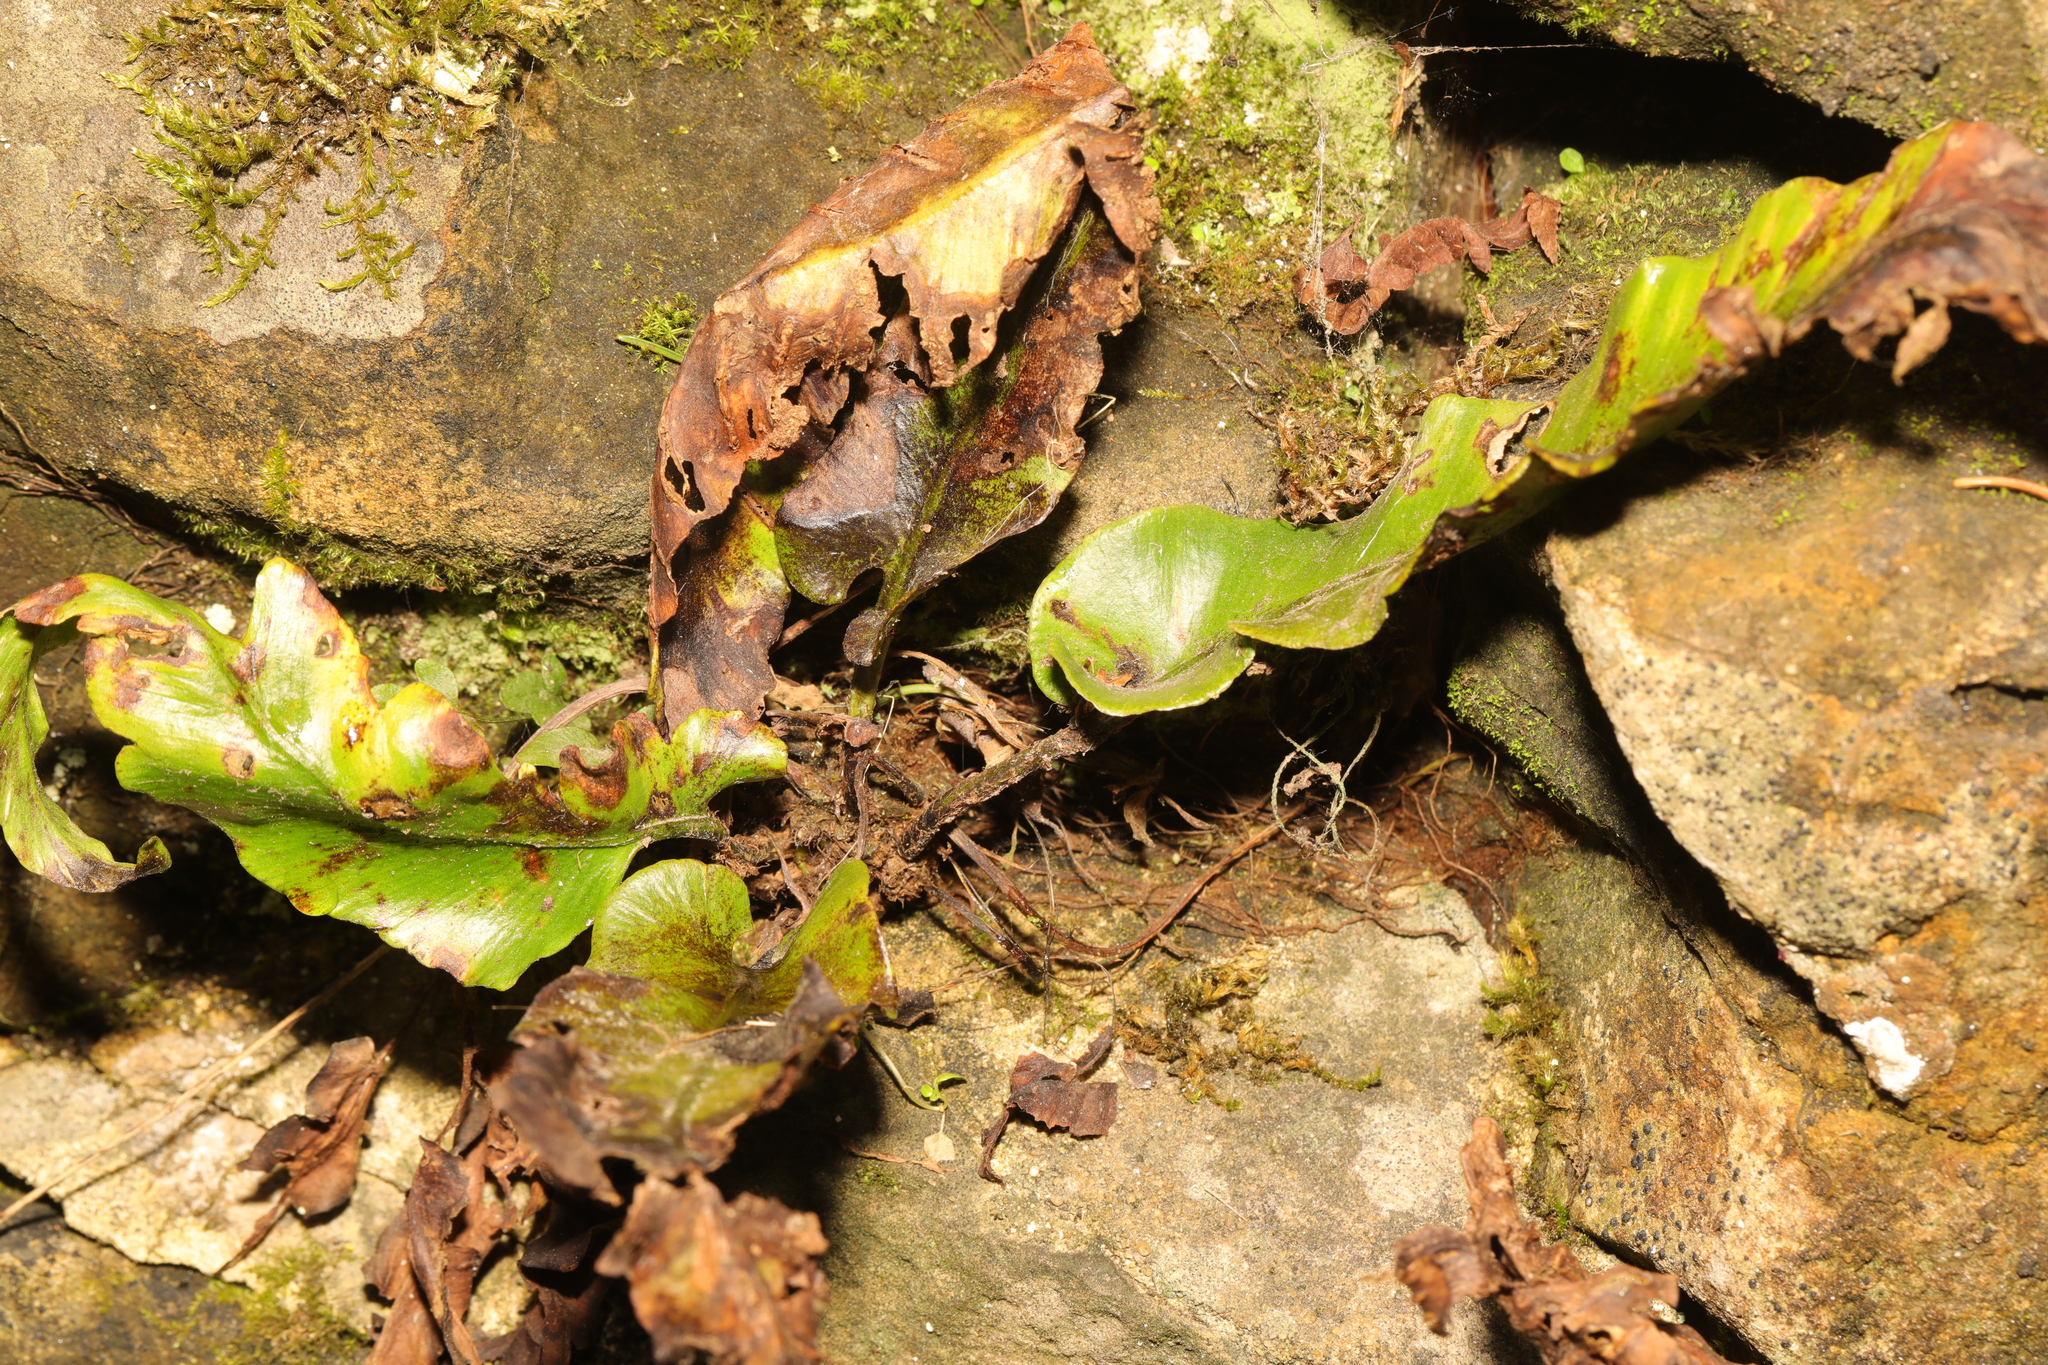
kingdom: Plantae
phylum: Tracheophyta
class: Polypodiopsida
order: Polypodiales
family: Aspleniaceae
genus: Asplenium
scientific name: Asplenium scolopendrium
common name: Hart's-tongue fern
